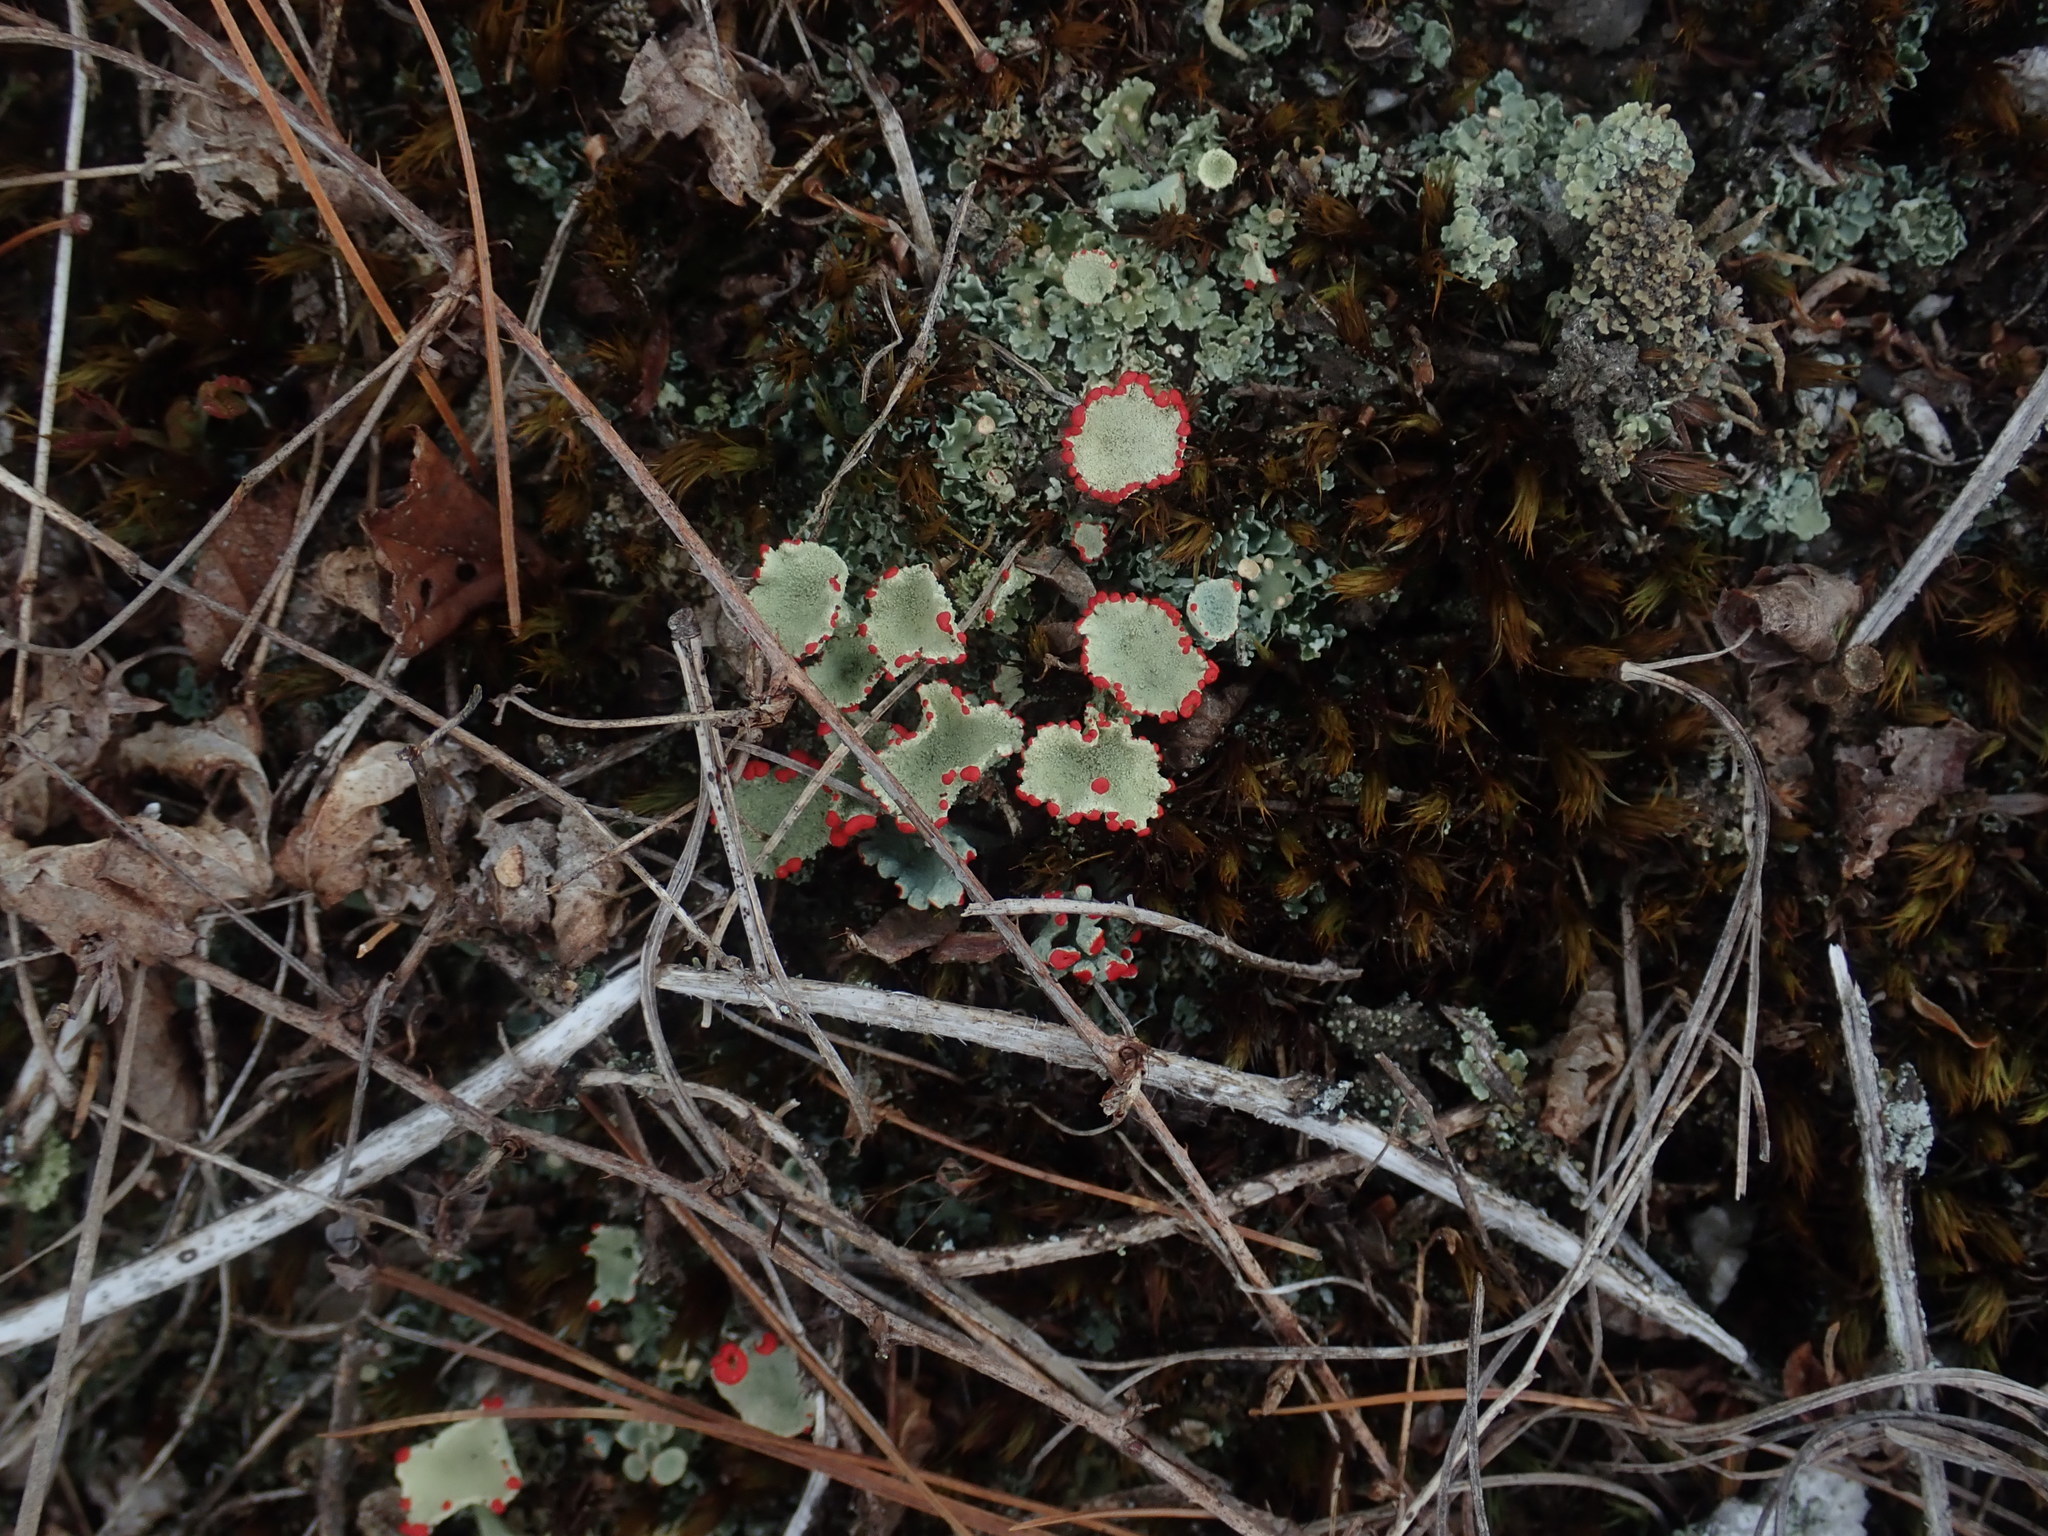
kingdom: Fungi
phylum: Ascomycota
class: Lecanoromycetes
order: Lecanorales
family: Cladoniaceae
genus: Cladonia
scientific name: Cladonia pleurota
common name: Red-fruited pixie cup
